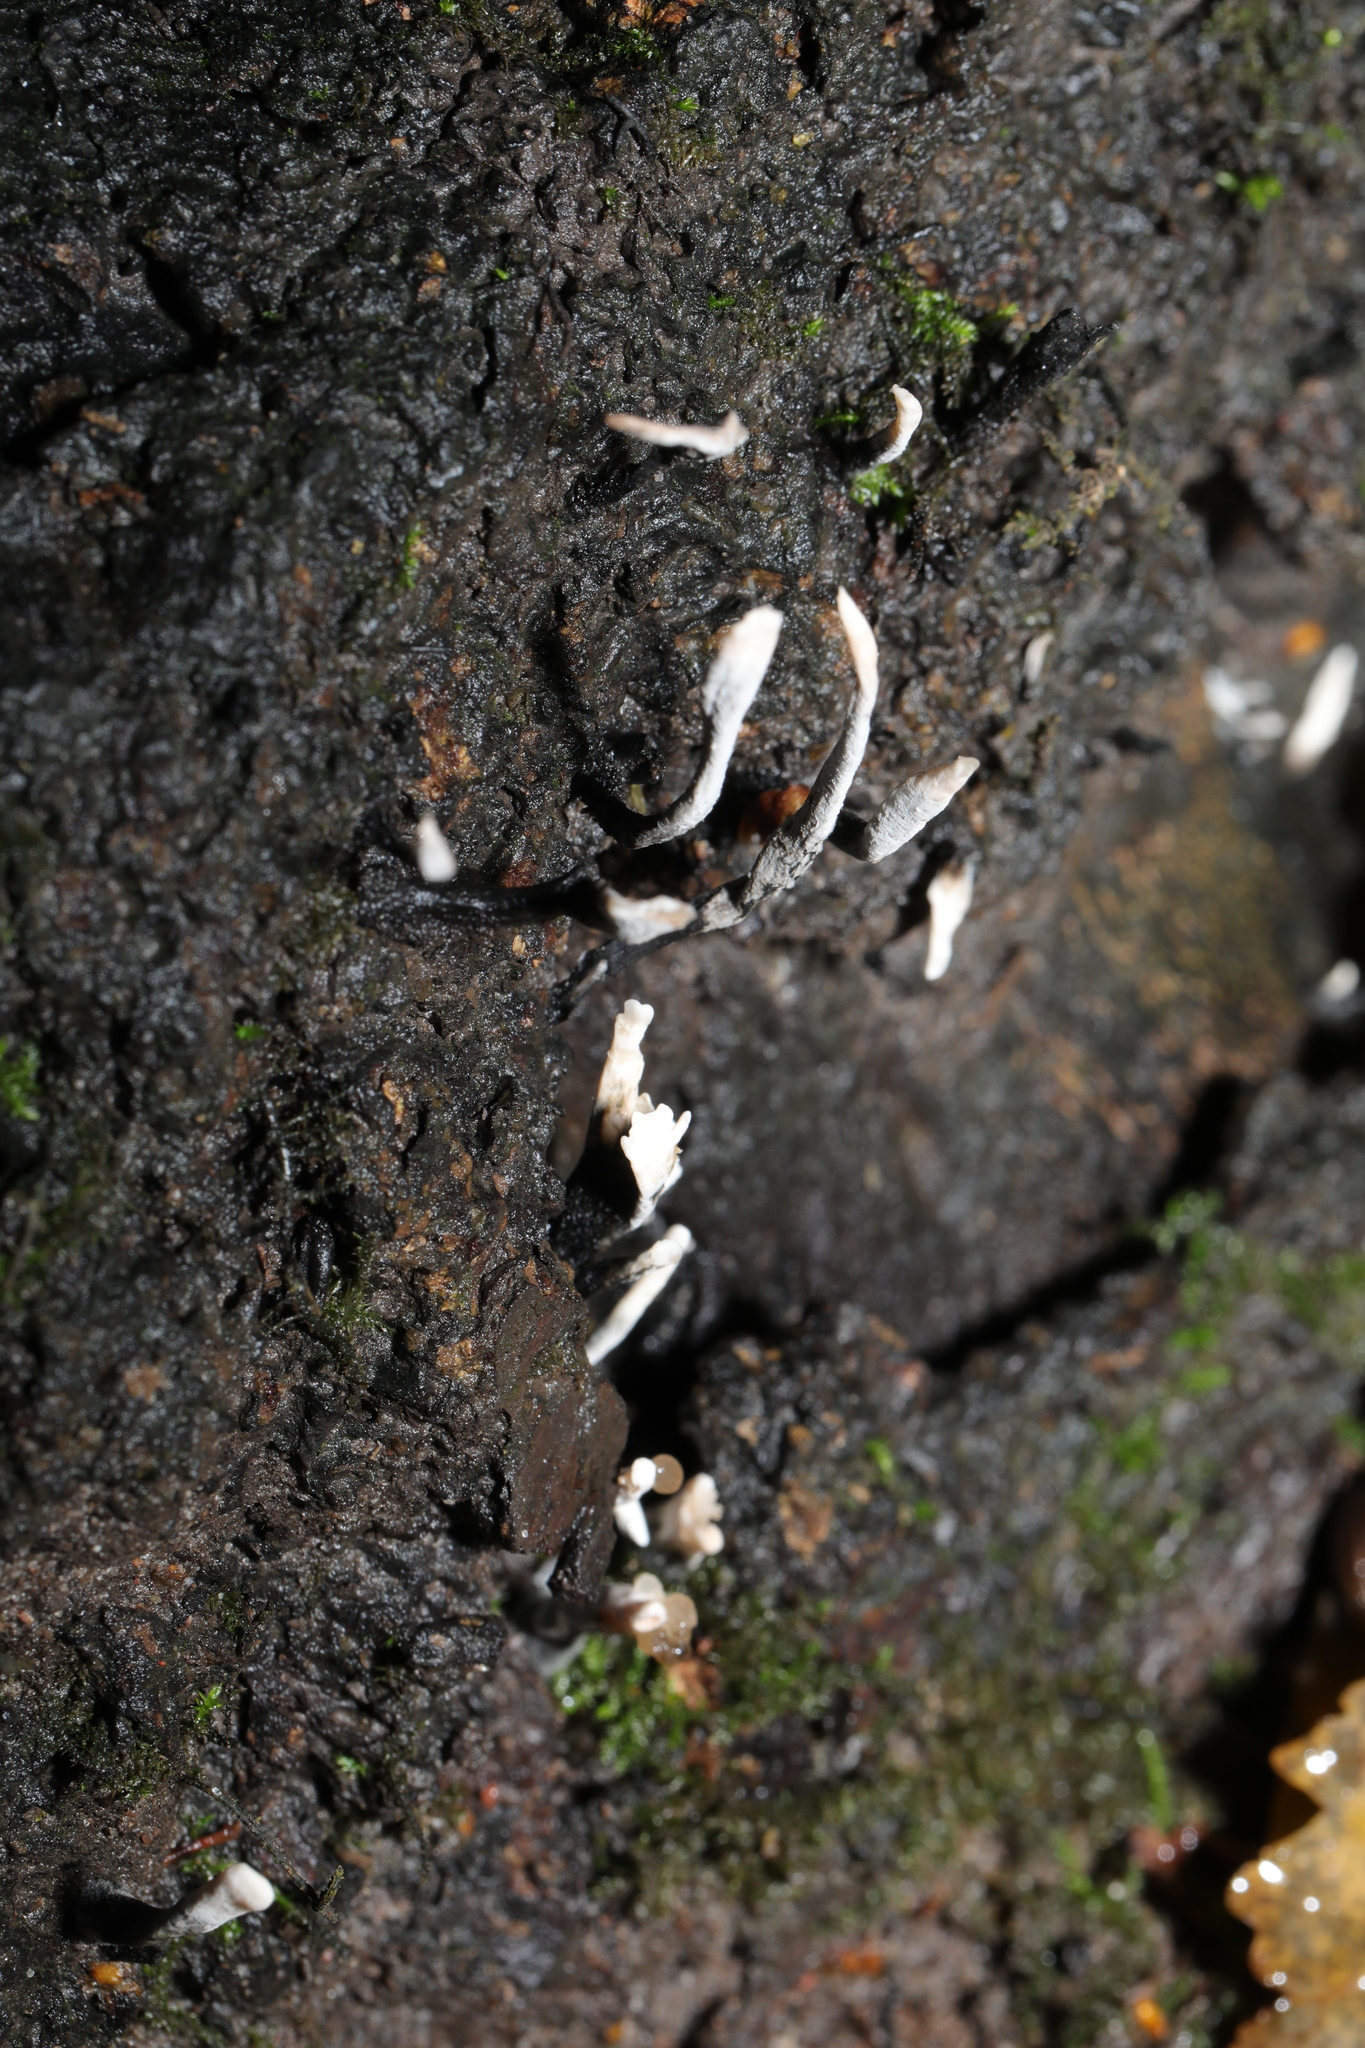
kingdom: Fungi
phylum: Ascomycota
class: Sordariomycetes
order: Xylariales
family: Xylariaceae
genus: Xylaria
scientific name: Xylaria hypoxylon
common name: Candle-snuff fungus
